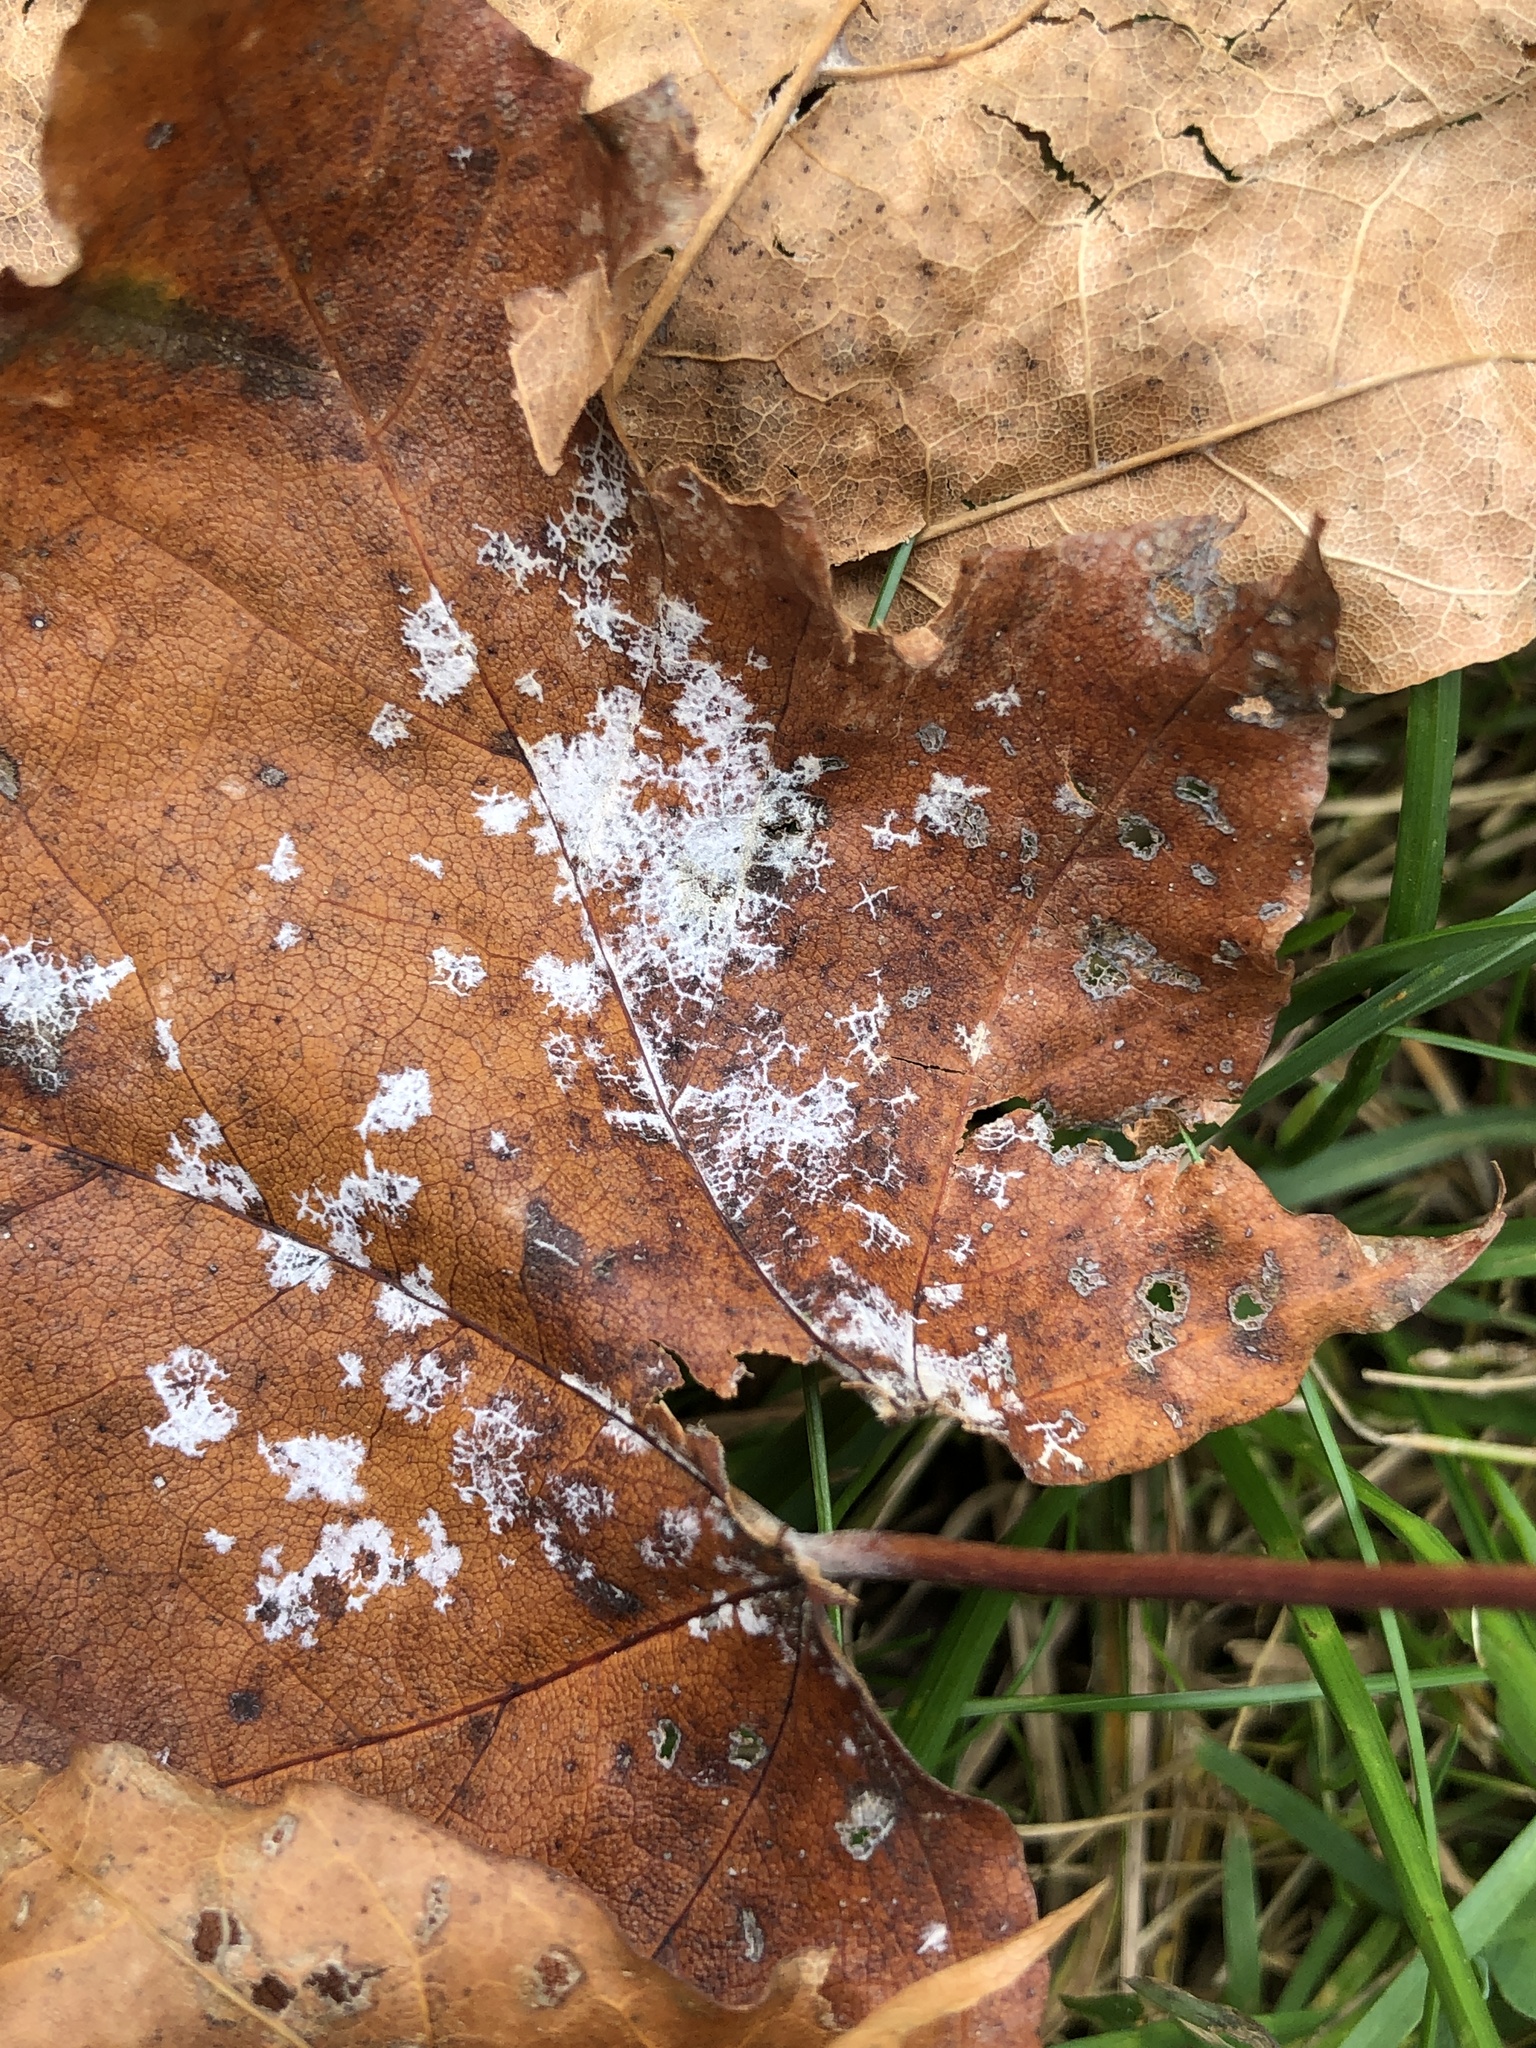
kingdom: Fungi
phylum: Ascomycota
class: Leotiomycetes
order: Helotiales
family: Erysiphaceae
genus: Sawadaea
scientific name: Sawadaea tulasnei
